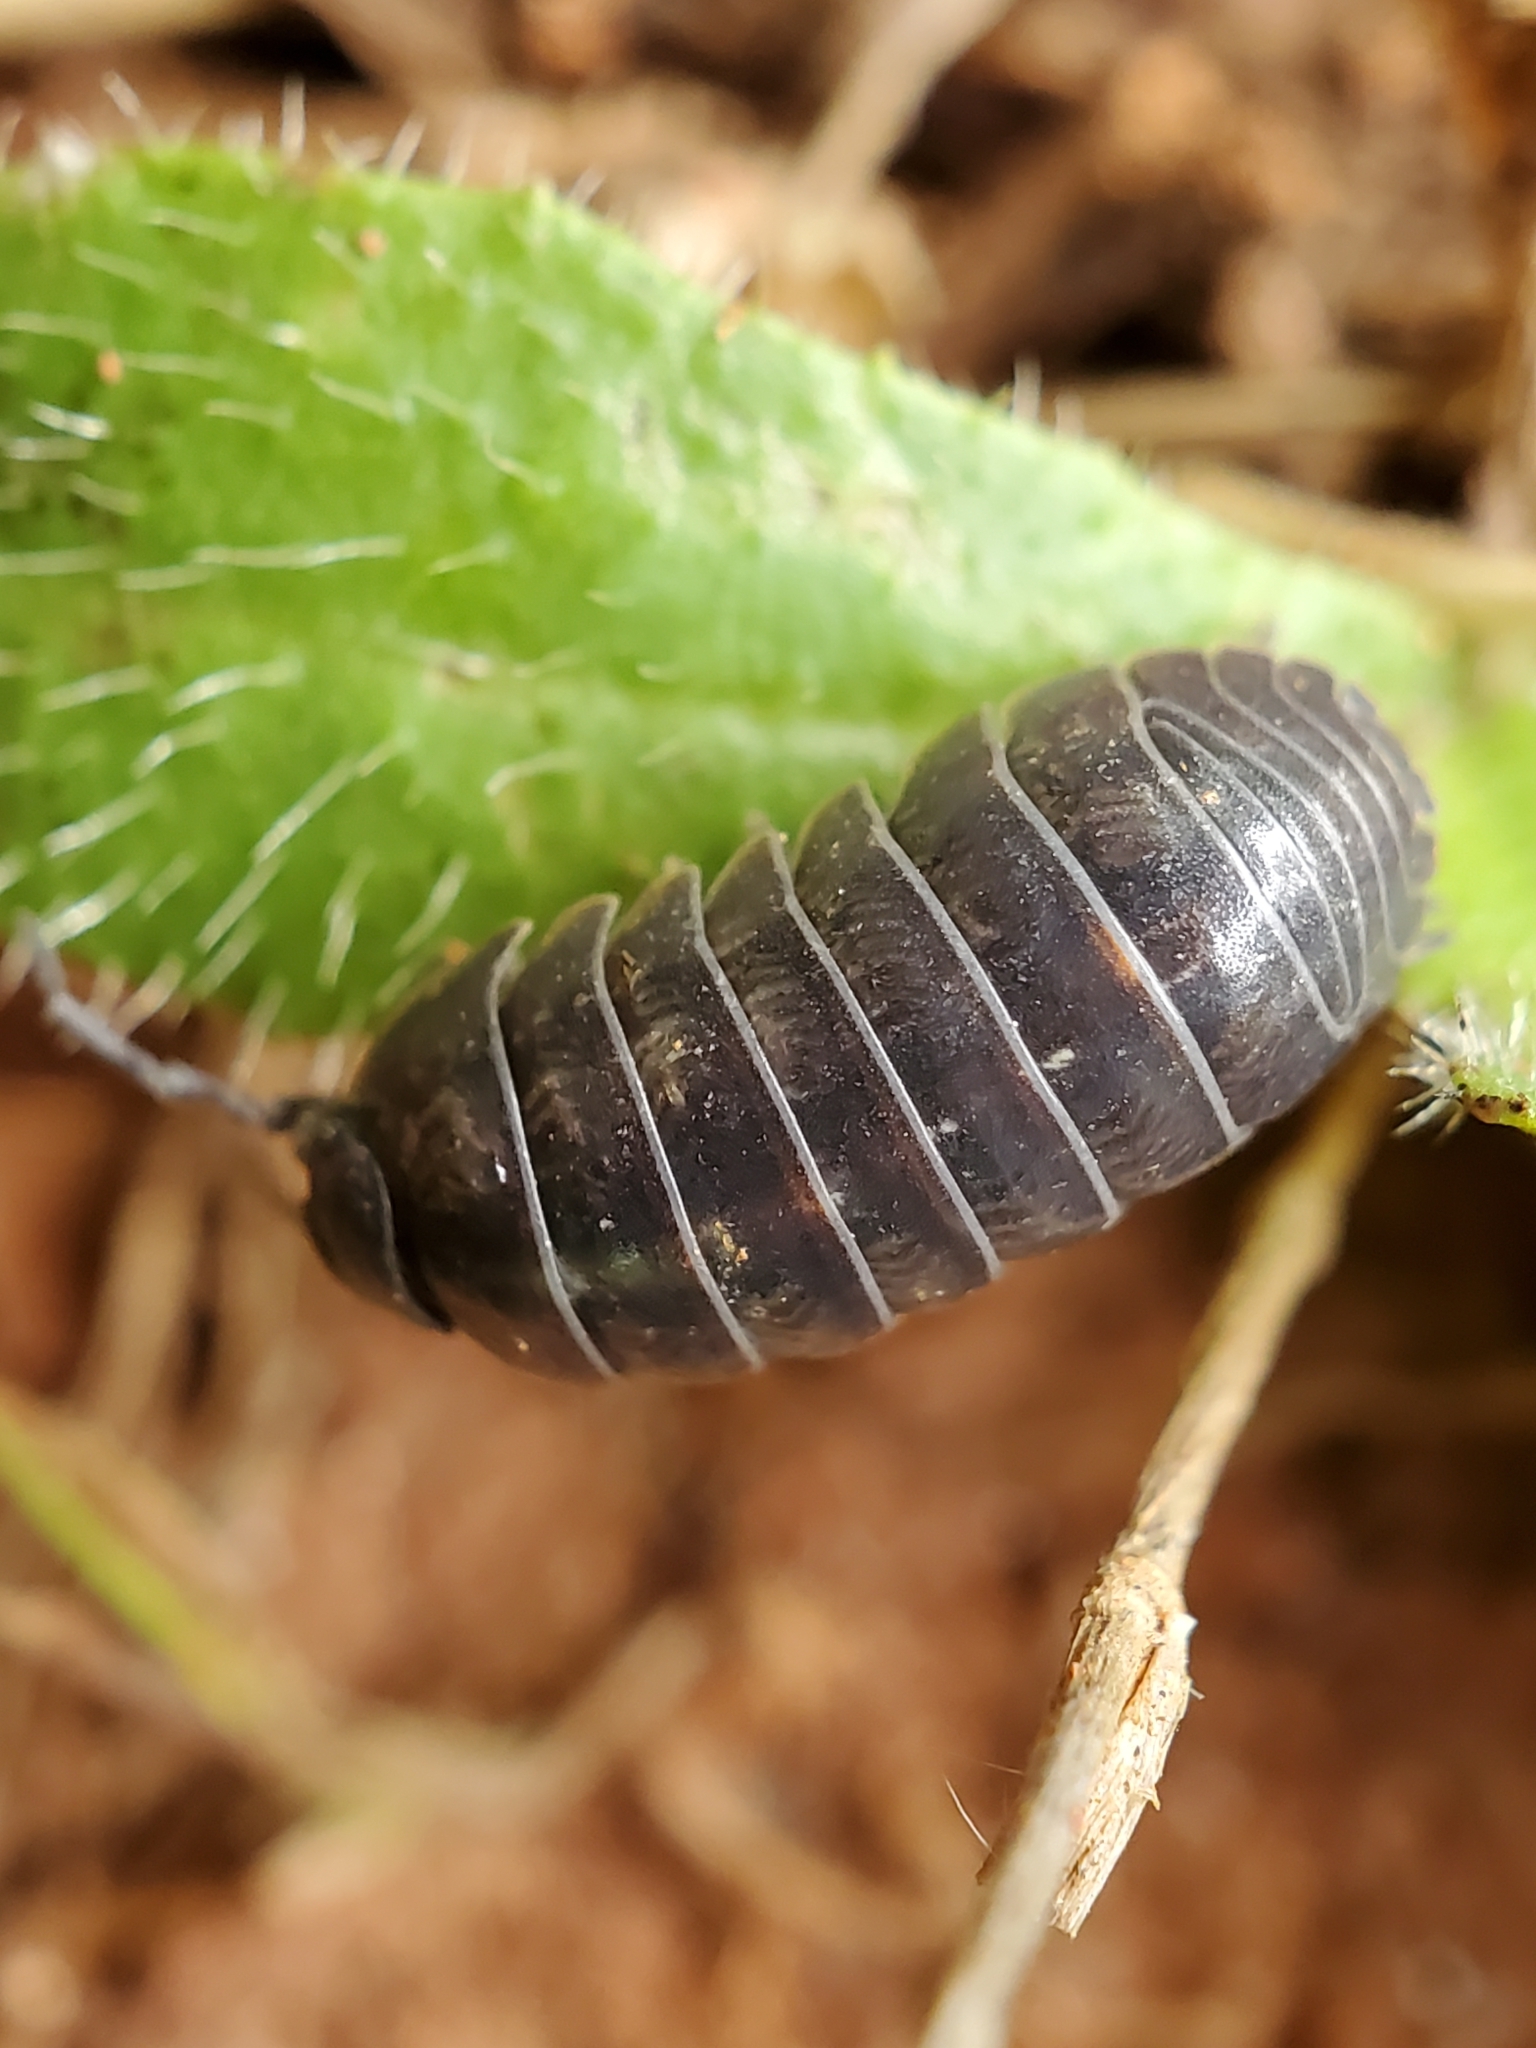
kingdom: Animalia
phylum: Arthropoda
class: Malacostraca
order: Isopoda
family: Armadillidiidae
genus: Armadillidium
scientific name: Armadillidium vulgare
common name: Common pill woodlouse
